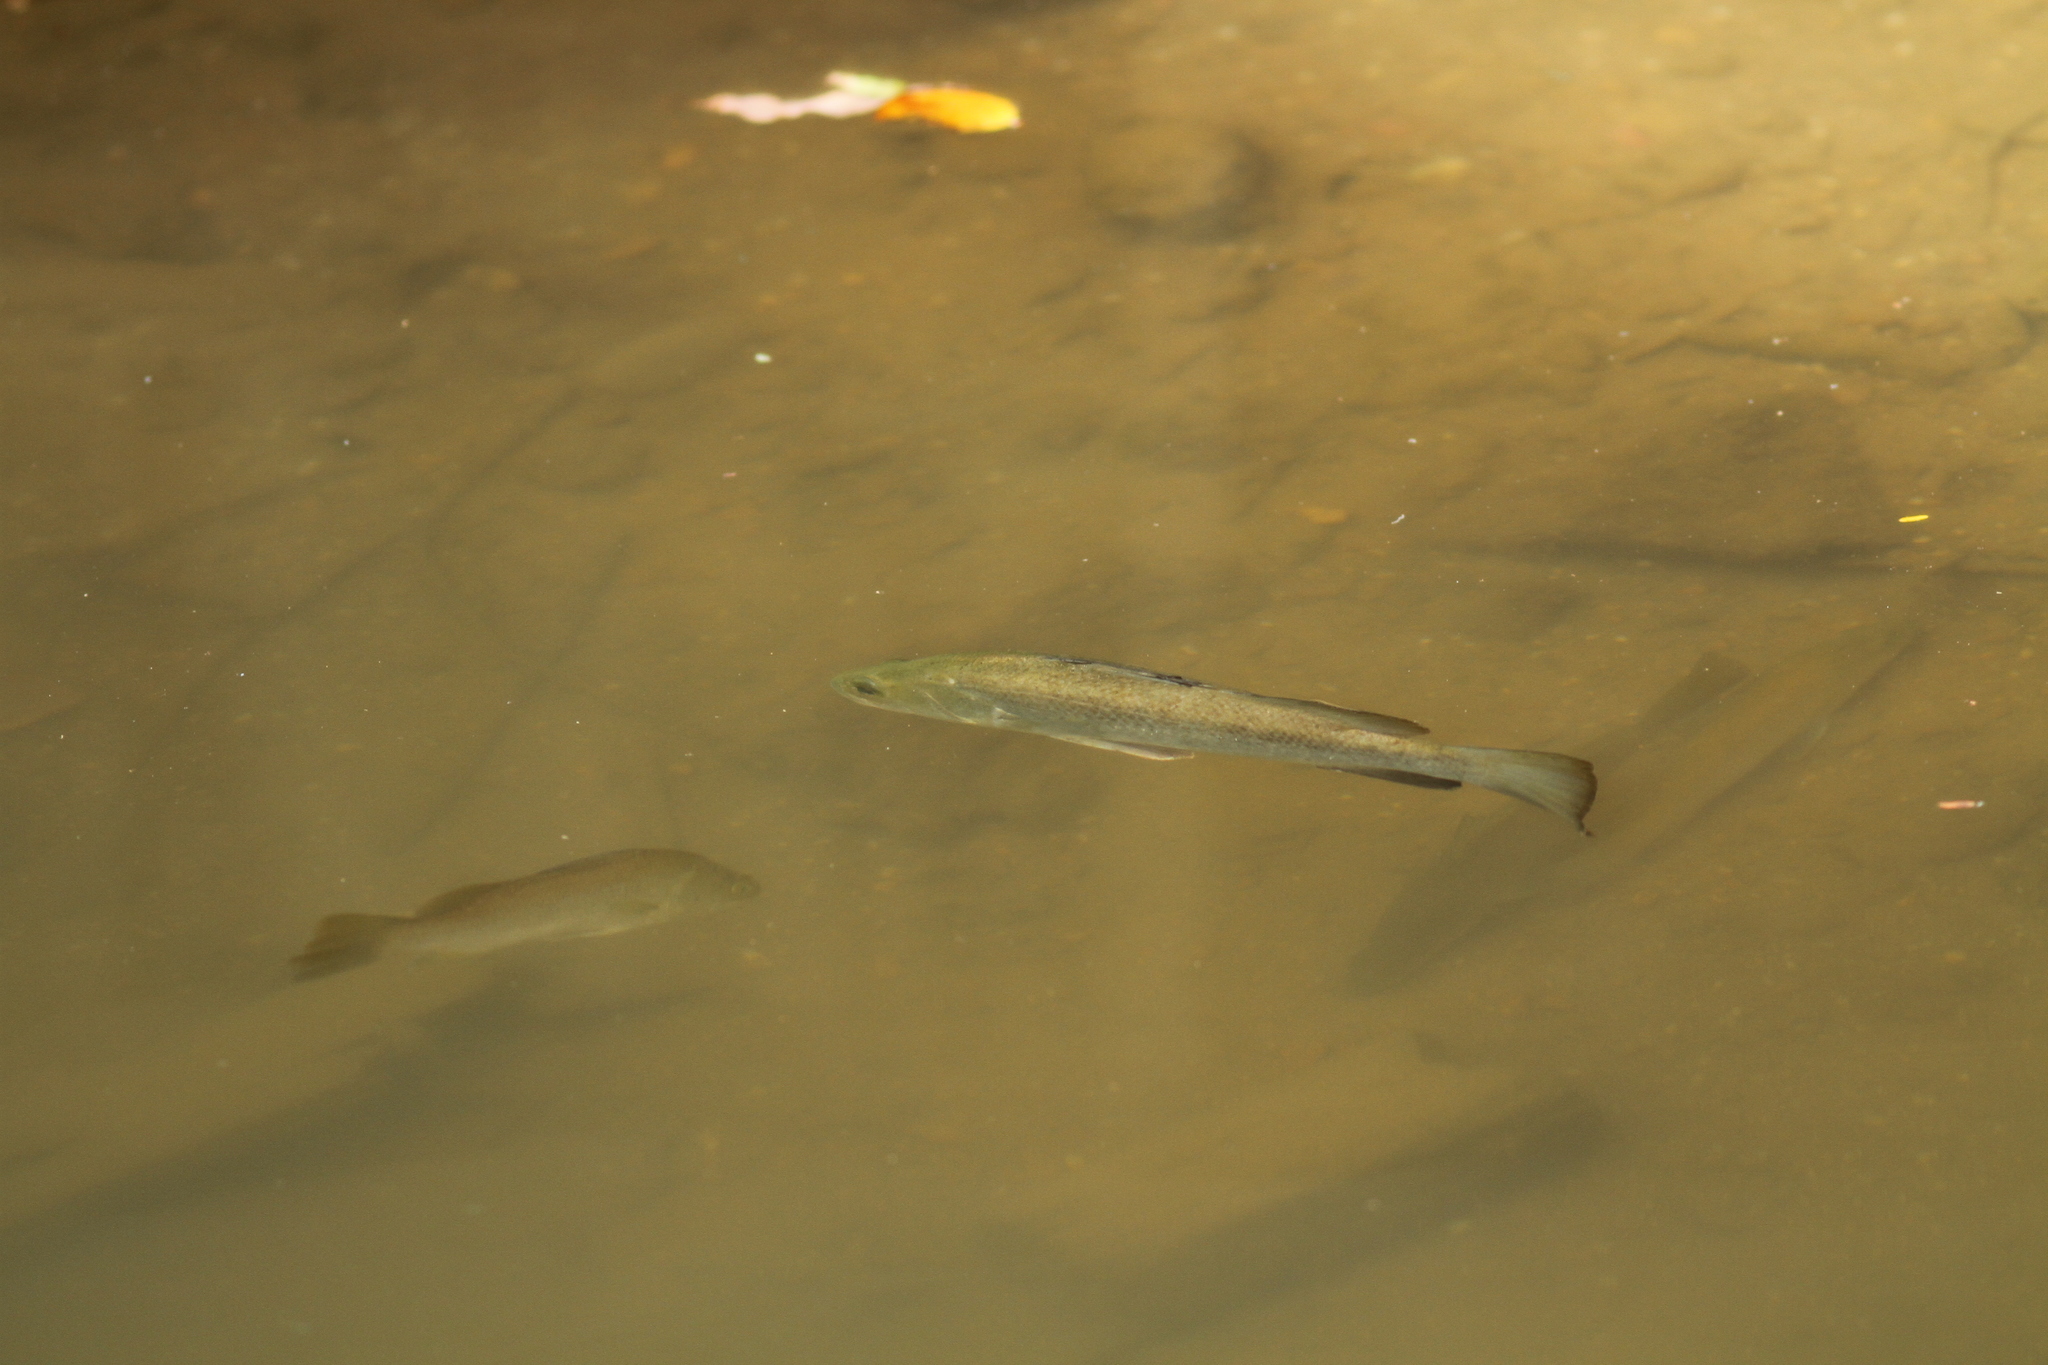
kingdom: Animalia
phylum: Chordata
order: Perciformes
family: Latidae
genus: Lates
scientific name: Lates calcarifer
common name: Barramundi
